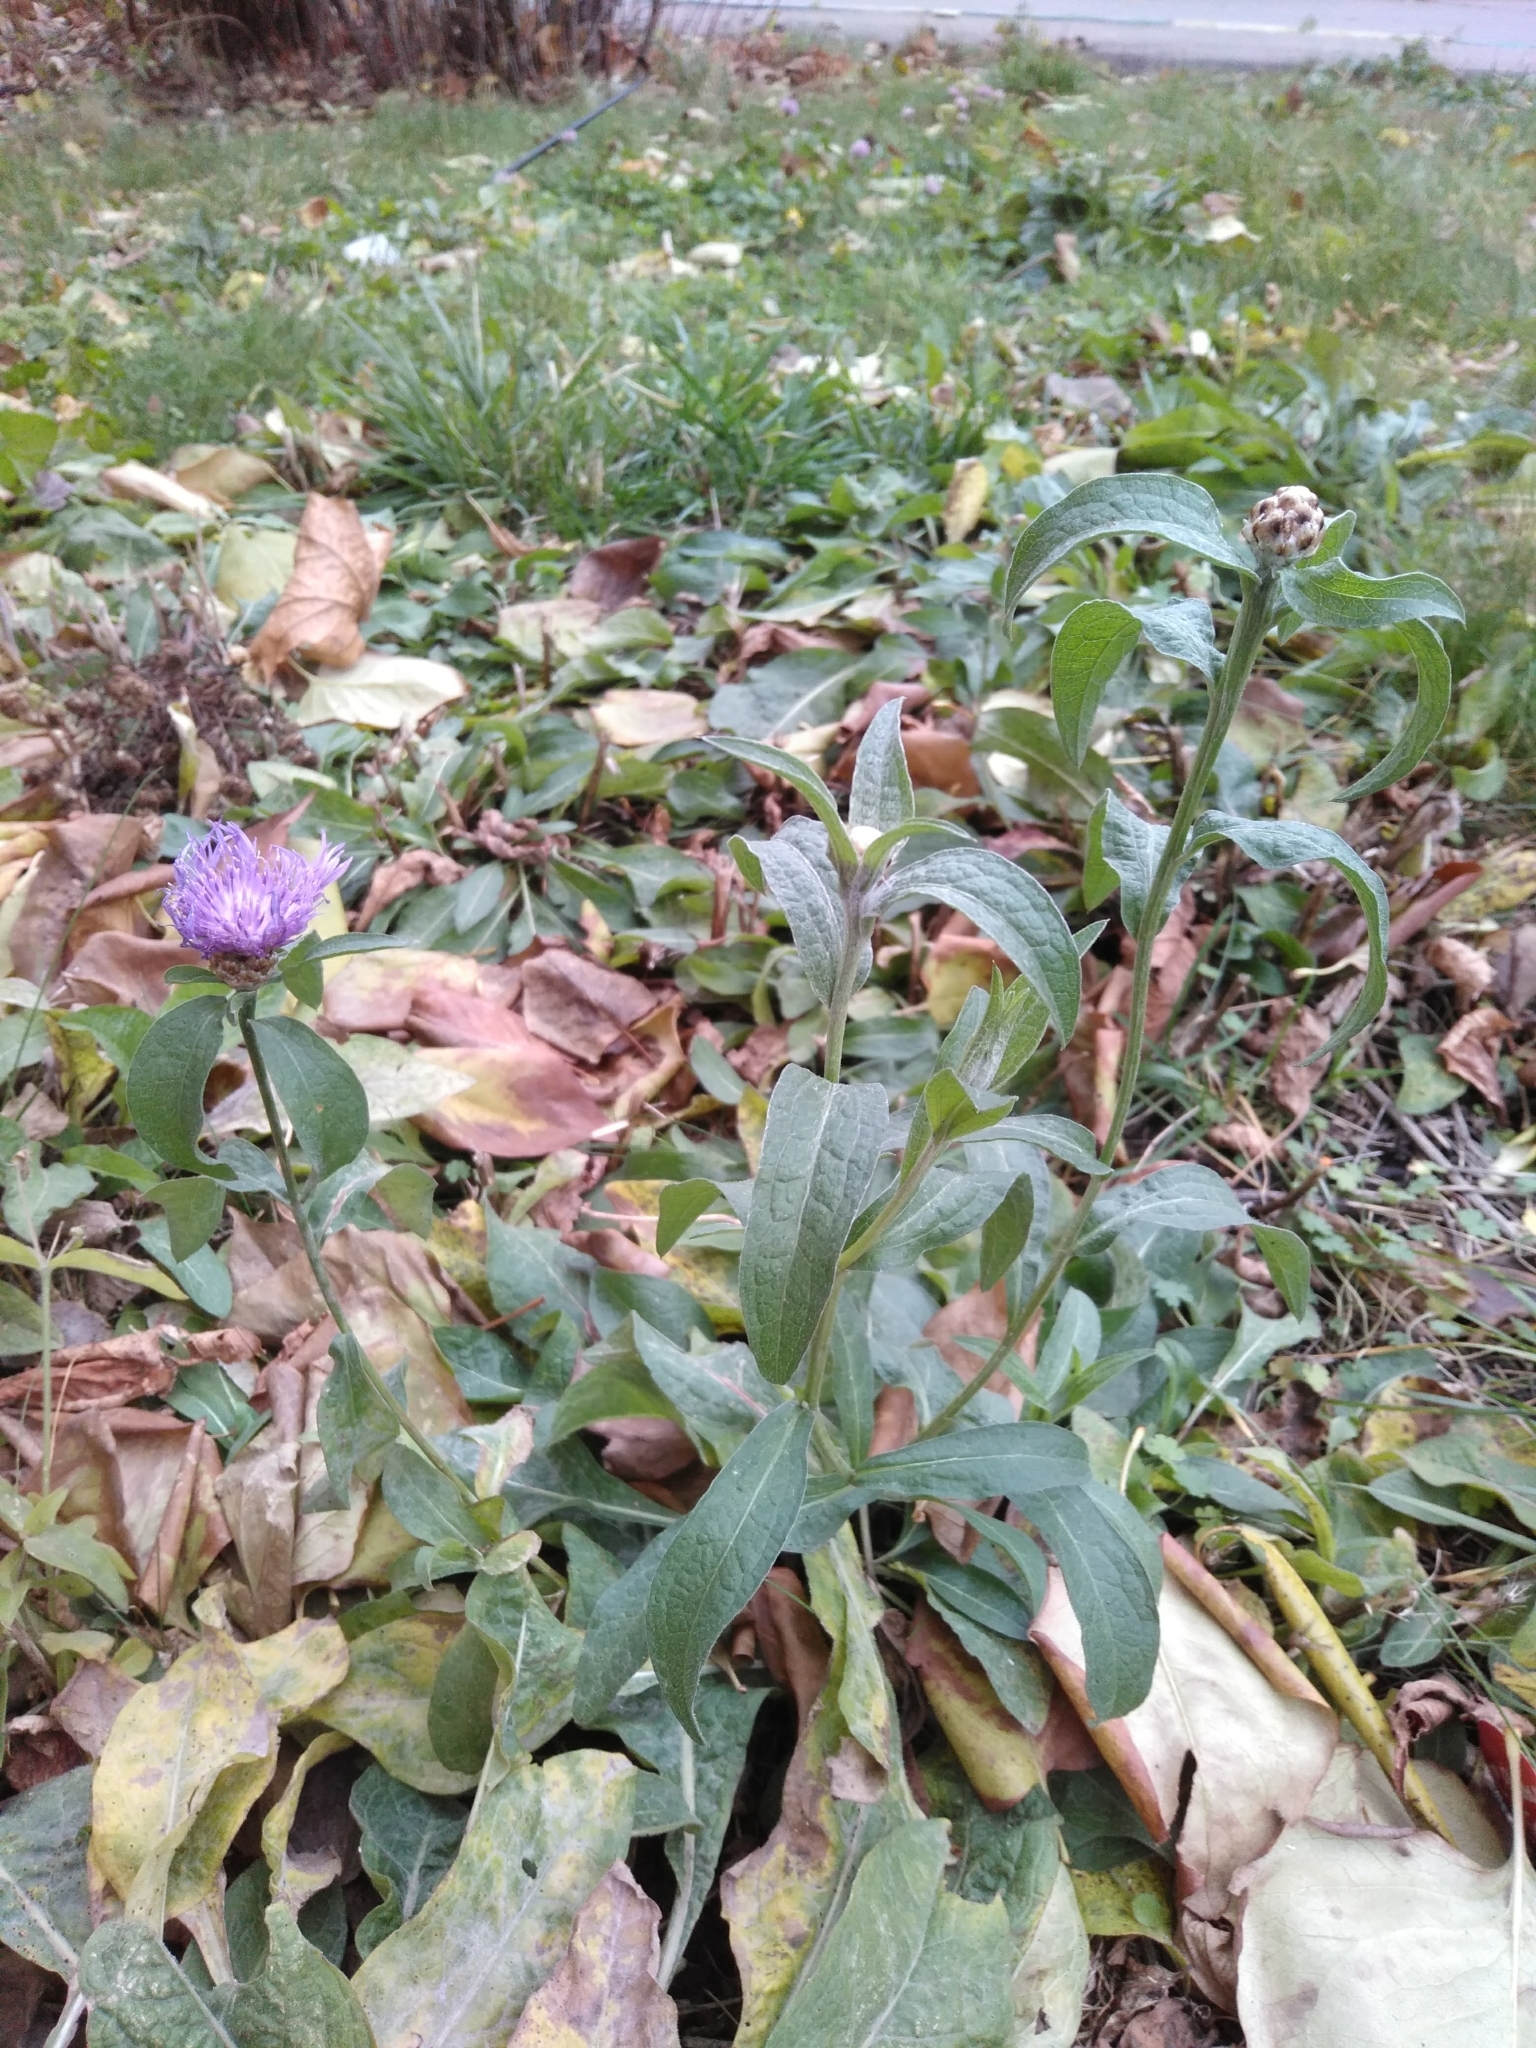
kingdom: Plantae
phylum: Tracheophyta
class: Magnoliopsida
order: Asterales
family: Asteraceae
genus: Centaurea
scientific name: Centaurea jacea
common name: Brown knapweed
